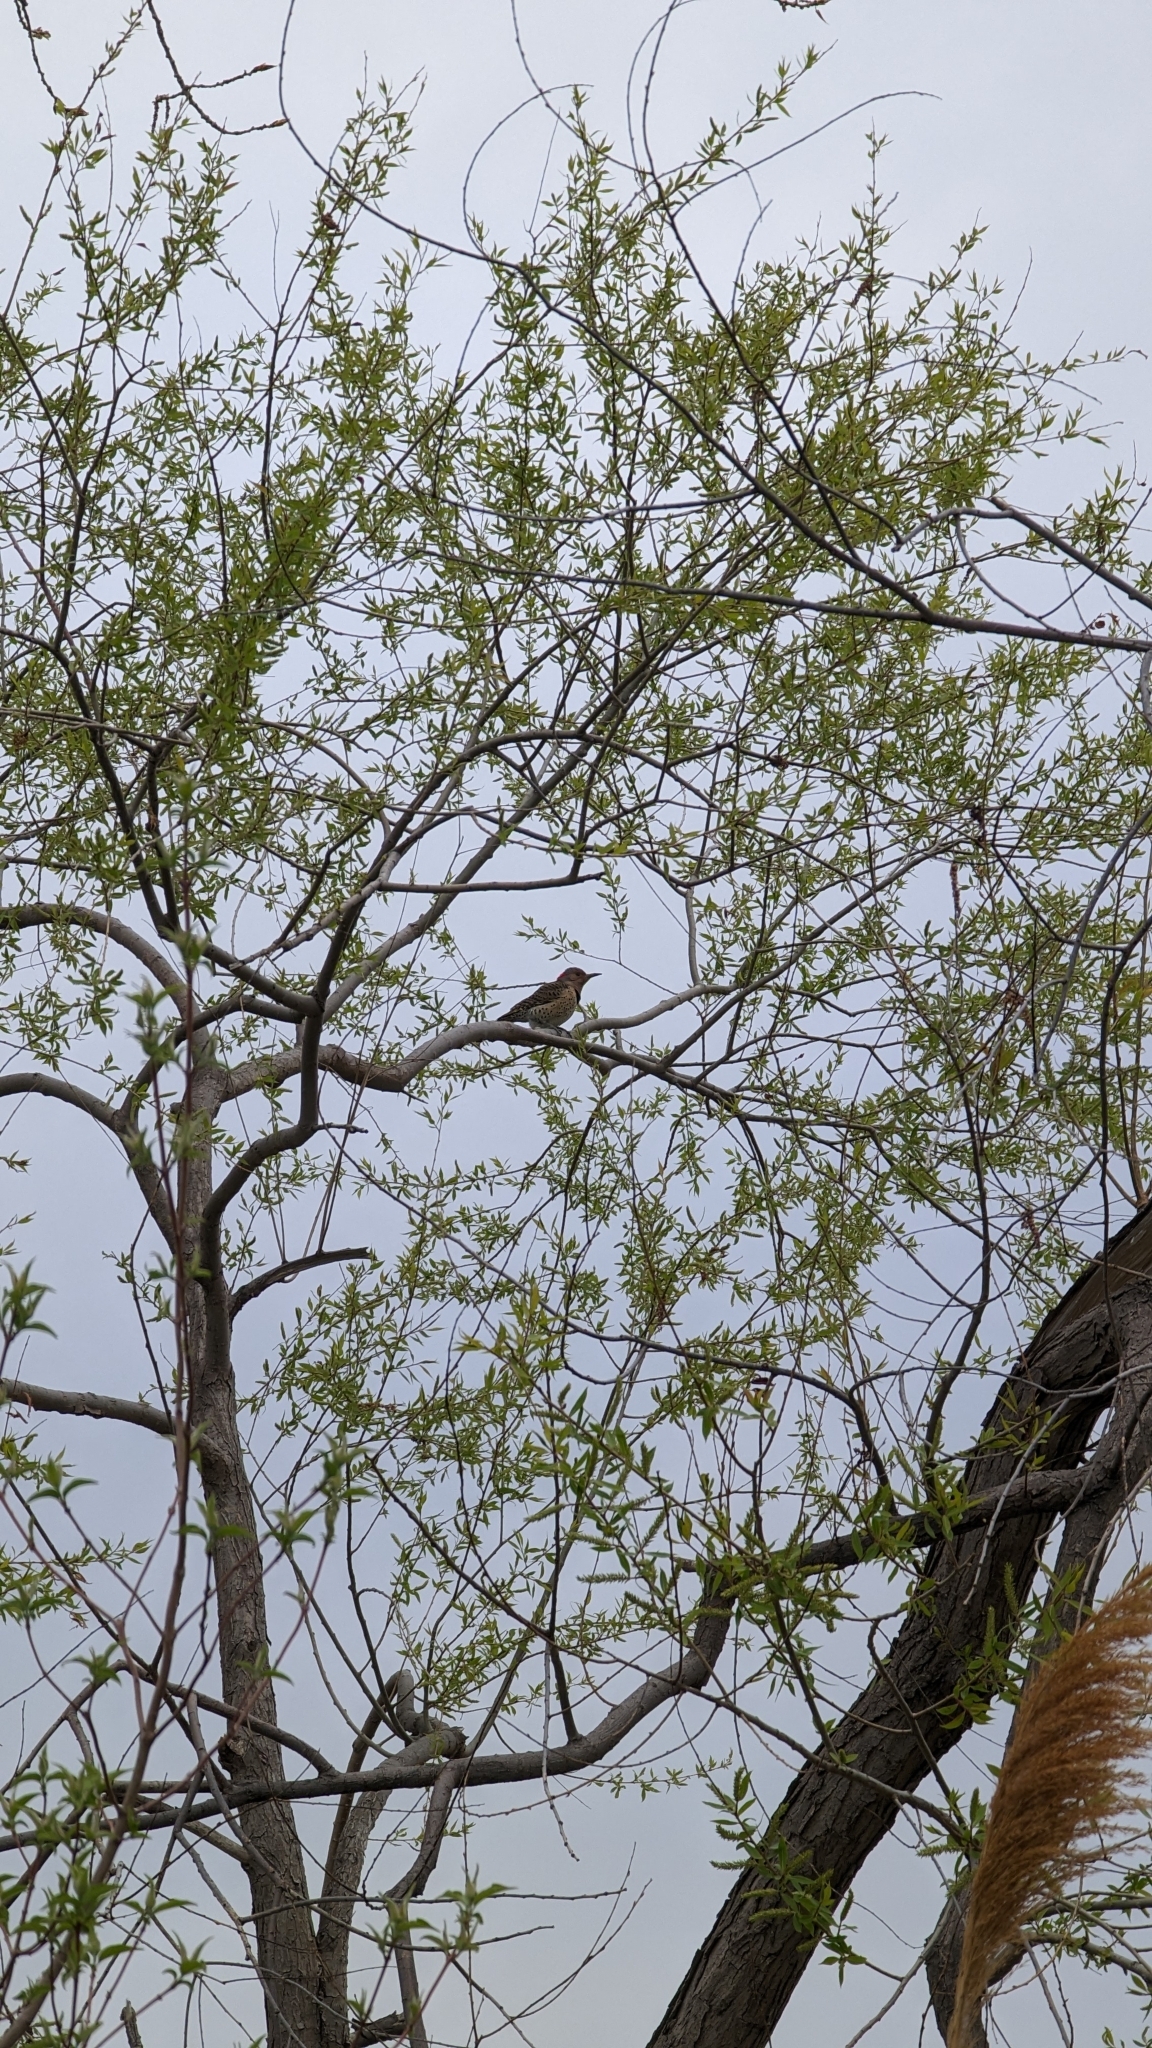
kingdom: Animalia
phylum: Chordata
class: Aves
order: Piciformes
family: Picidae
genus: Colaptes
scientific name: Colaptes auratus
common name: Northern flicker
